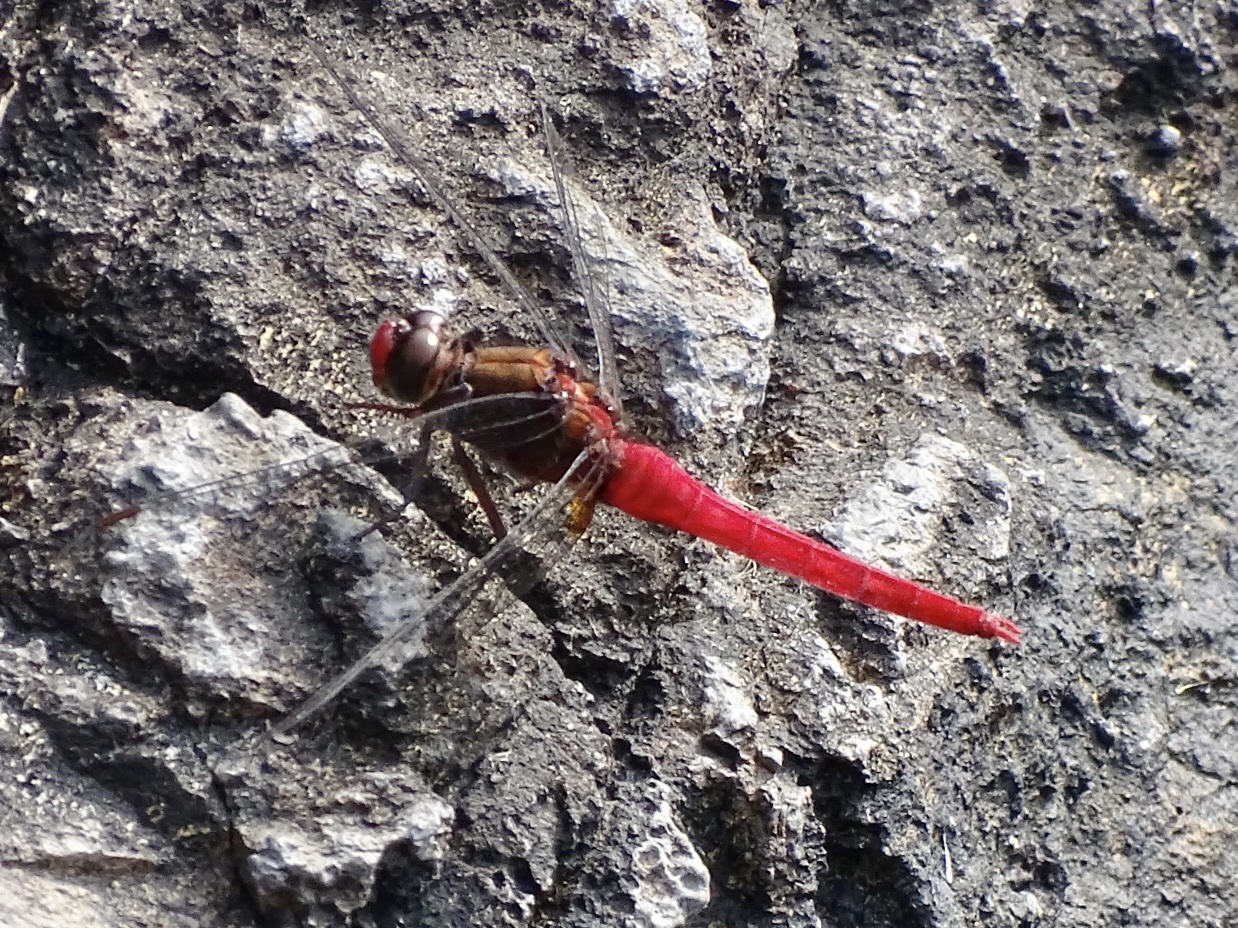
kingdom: Animalia
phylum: Arthropoda
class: Insecta
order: Odonata
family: Libellulidae
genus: Orthetrum
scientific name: Orthetrum chrysis
